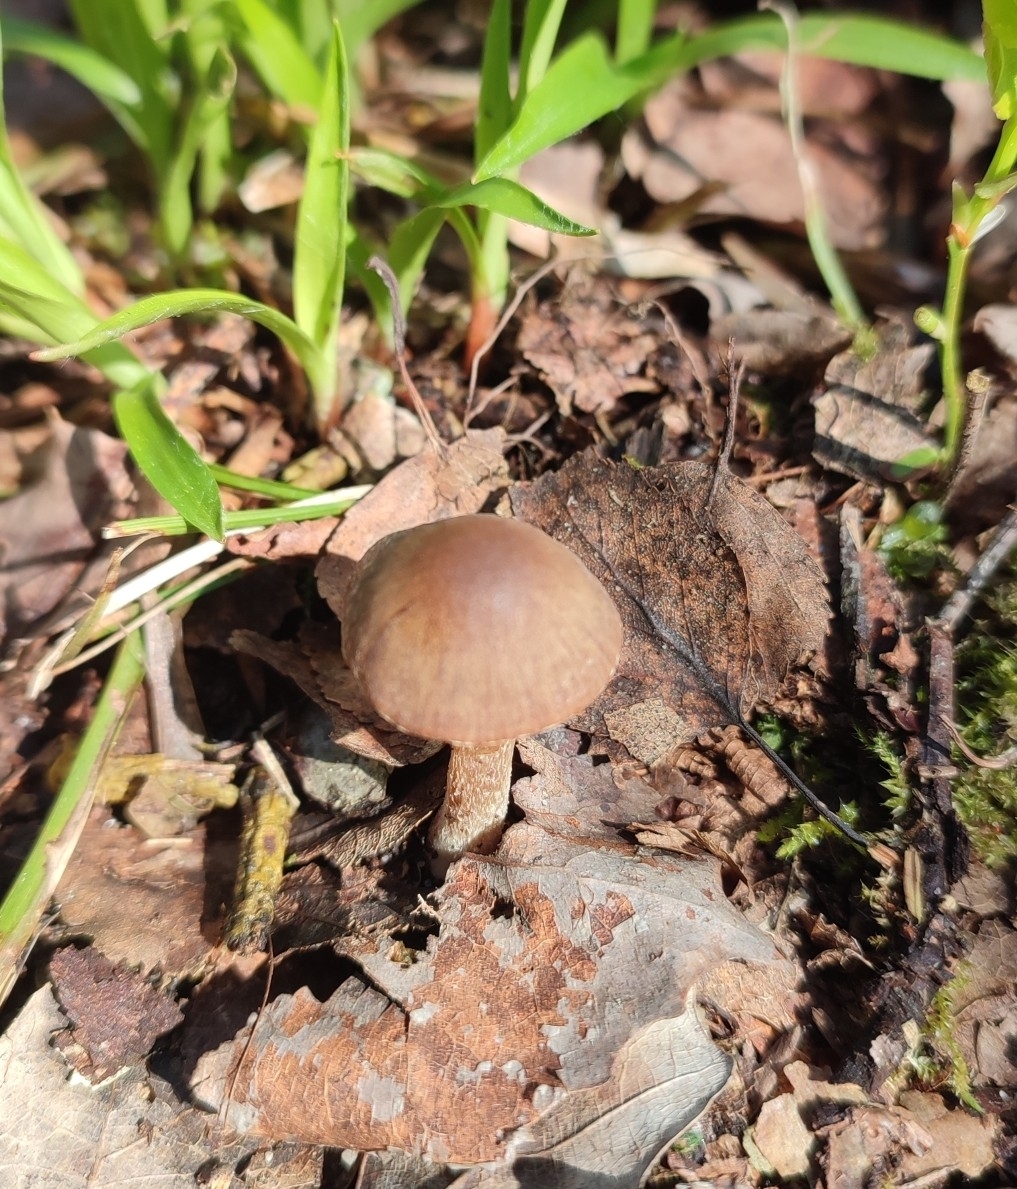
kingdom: Fungi
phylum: Basidiomycota
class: Agaricomycetes
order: Agaricales
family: Entolomataceae
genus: Entoloma
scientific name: Entoloma vernum
